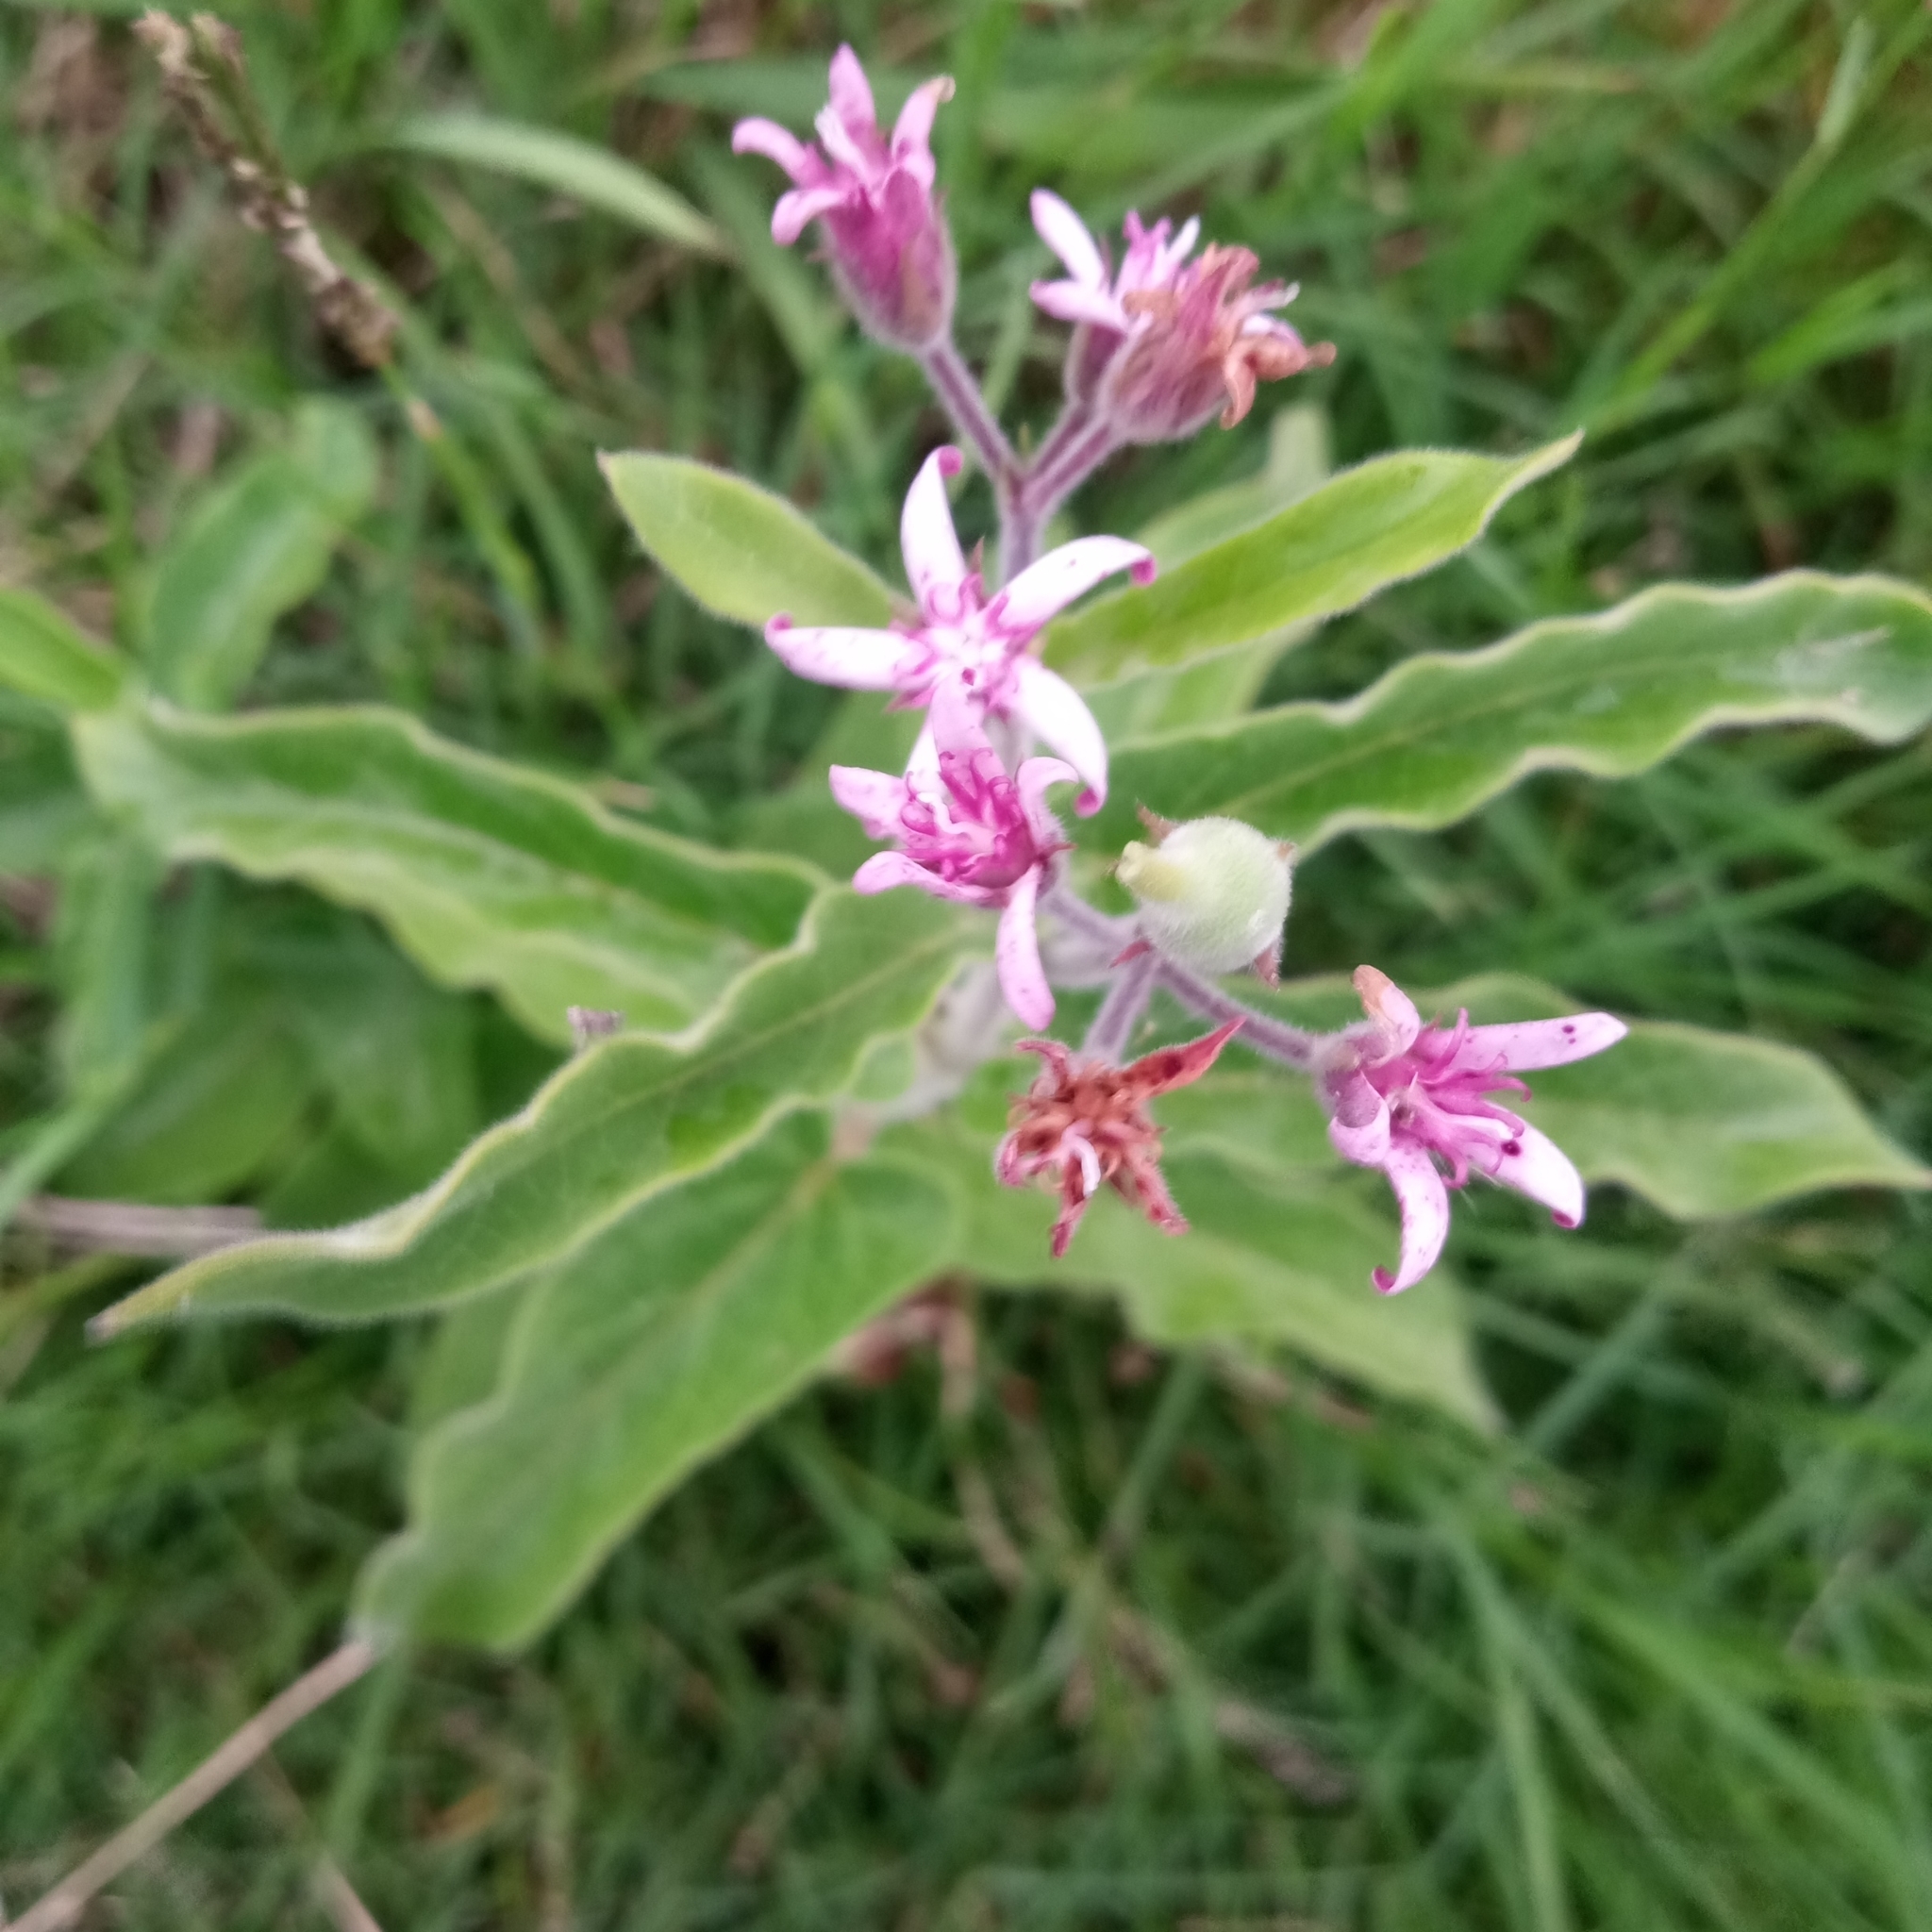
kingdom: Plantae
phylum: Tracheophyta
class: Magnoliopsida
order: Gentianales
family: Apocynaceae
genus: Oxypetalum
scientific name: Oxypetalum solanoides
